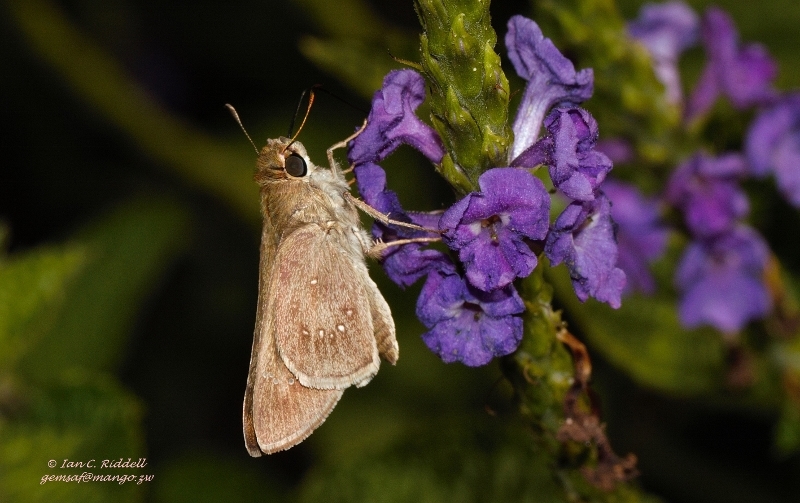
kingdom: Animalia
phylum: Arthropoda
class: Insecta
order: Lepidoptera
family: Hesperiidae
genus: Pelopidas
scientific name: Pelopidas thrax
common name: Millet skipper
